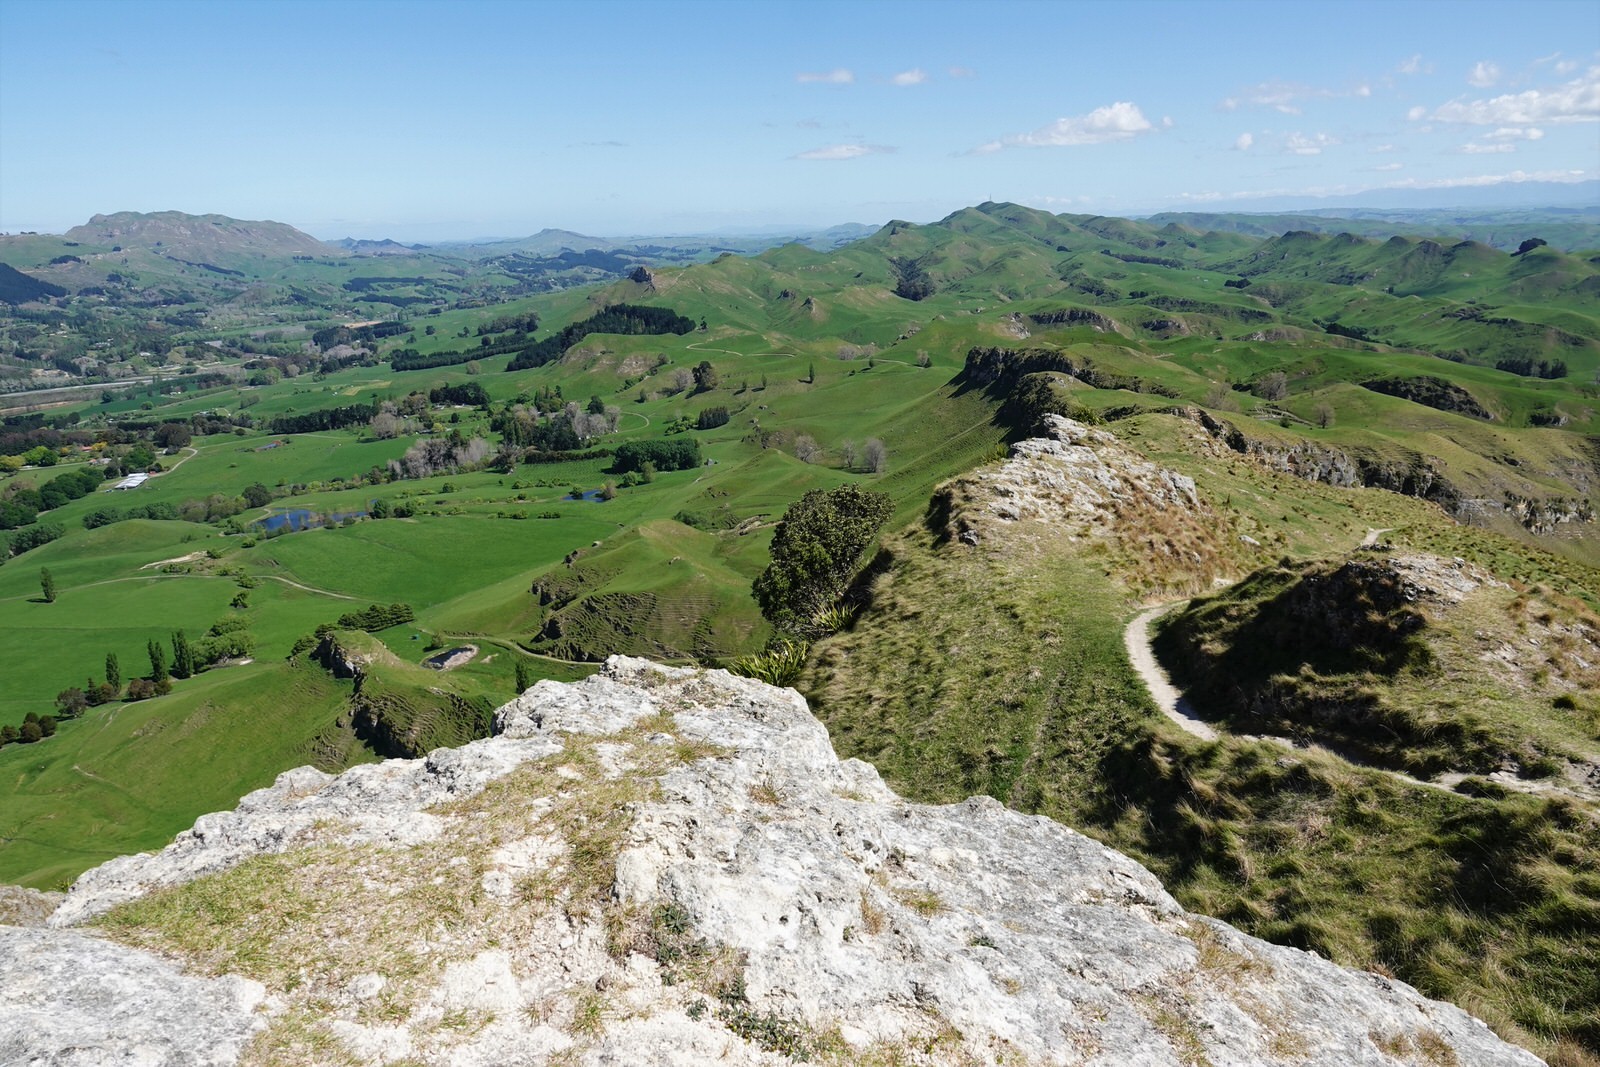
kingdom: Plantae
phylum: Tracheophyta
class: Magnoliopsida
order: Asterales
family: Asteraceae
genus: Pilosella
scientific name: Pilosella officinarum
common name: Mouse-ear hawkweed
